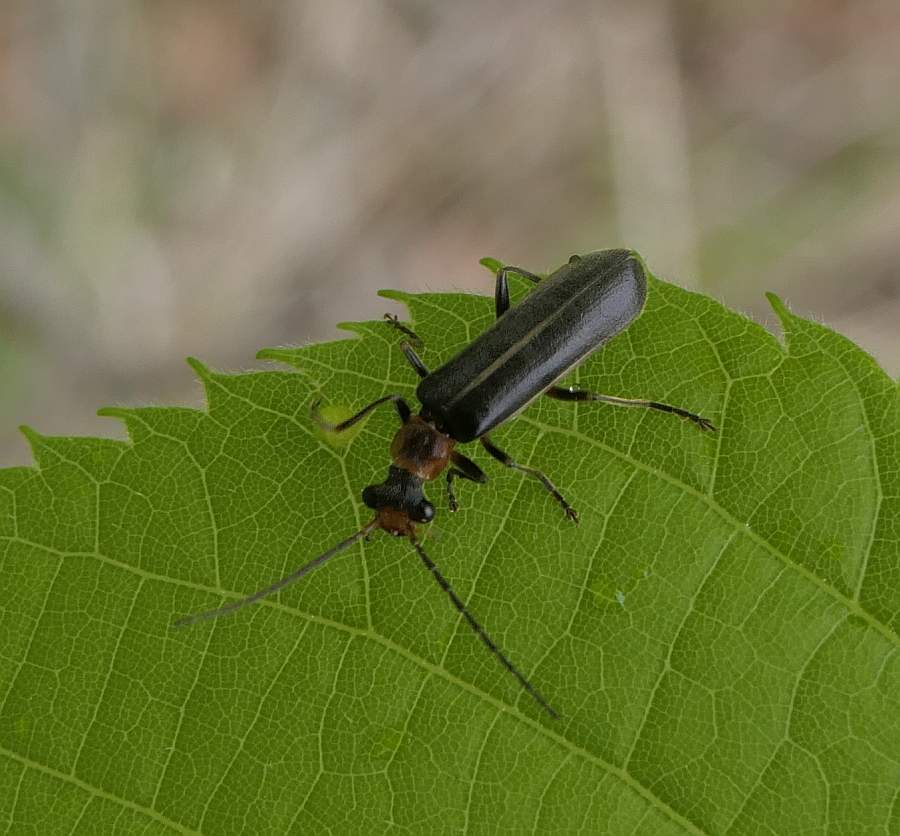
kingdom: Animalia
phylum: Arthropoda
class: Insecta
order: Coleoptera
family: Cantharidae
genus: Dichelotarsus
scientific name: Dichelotarsus cinctipennis
